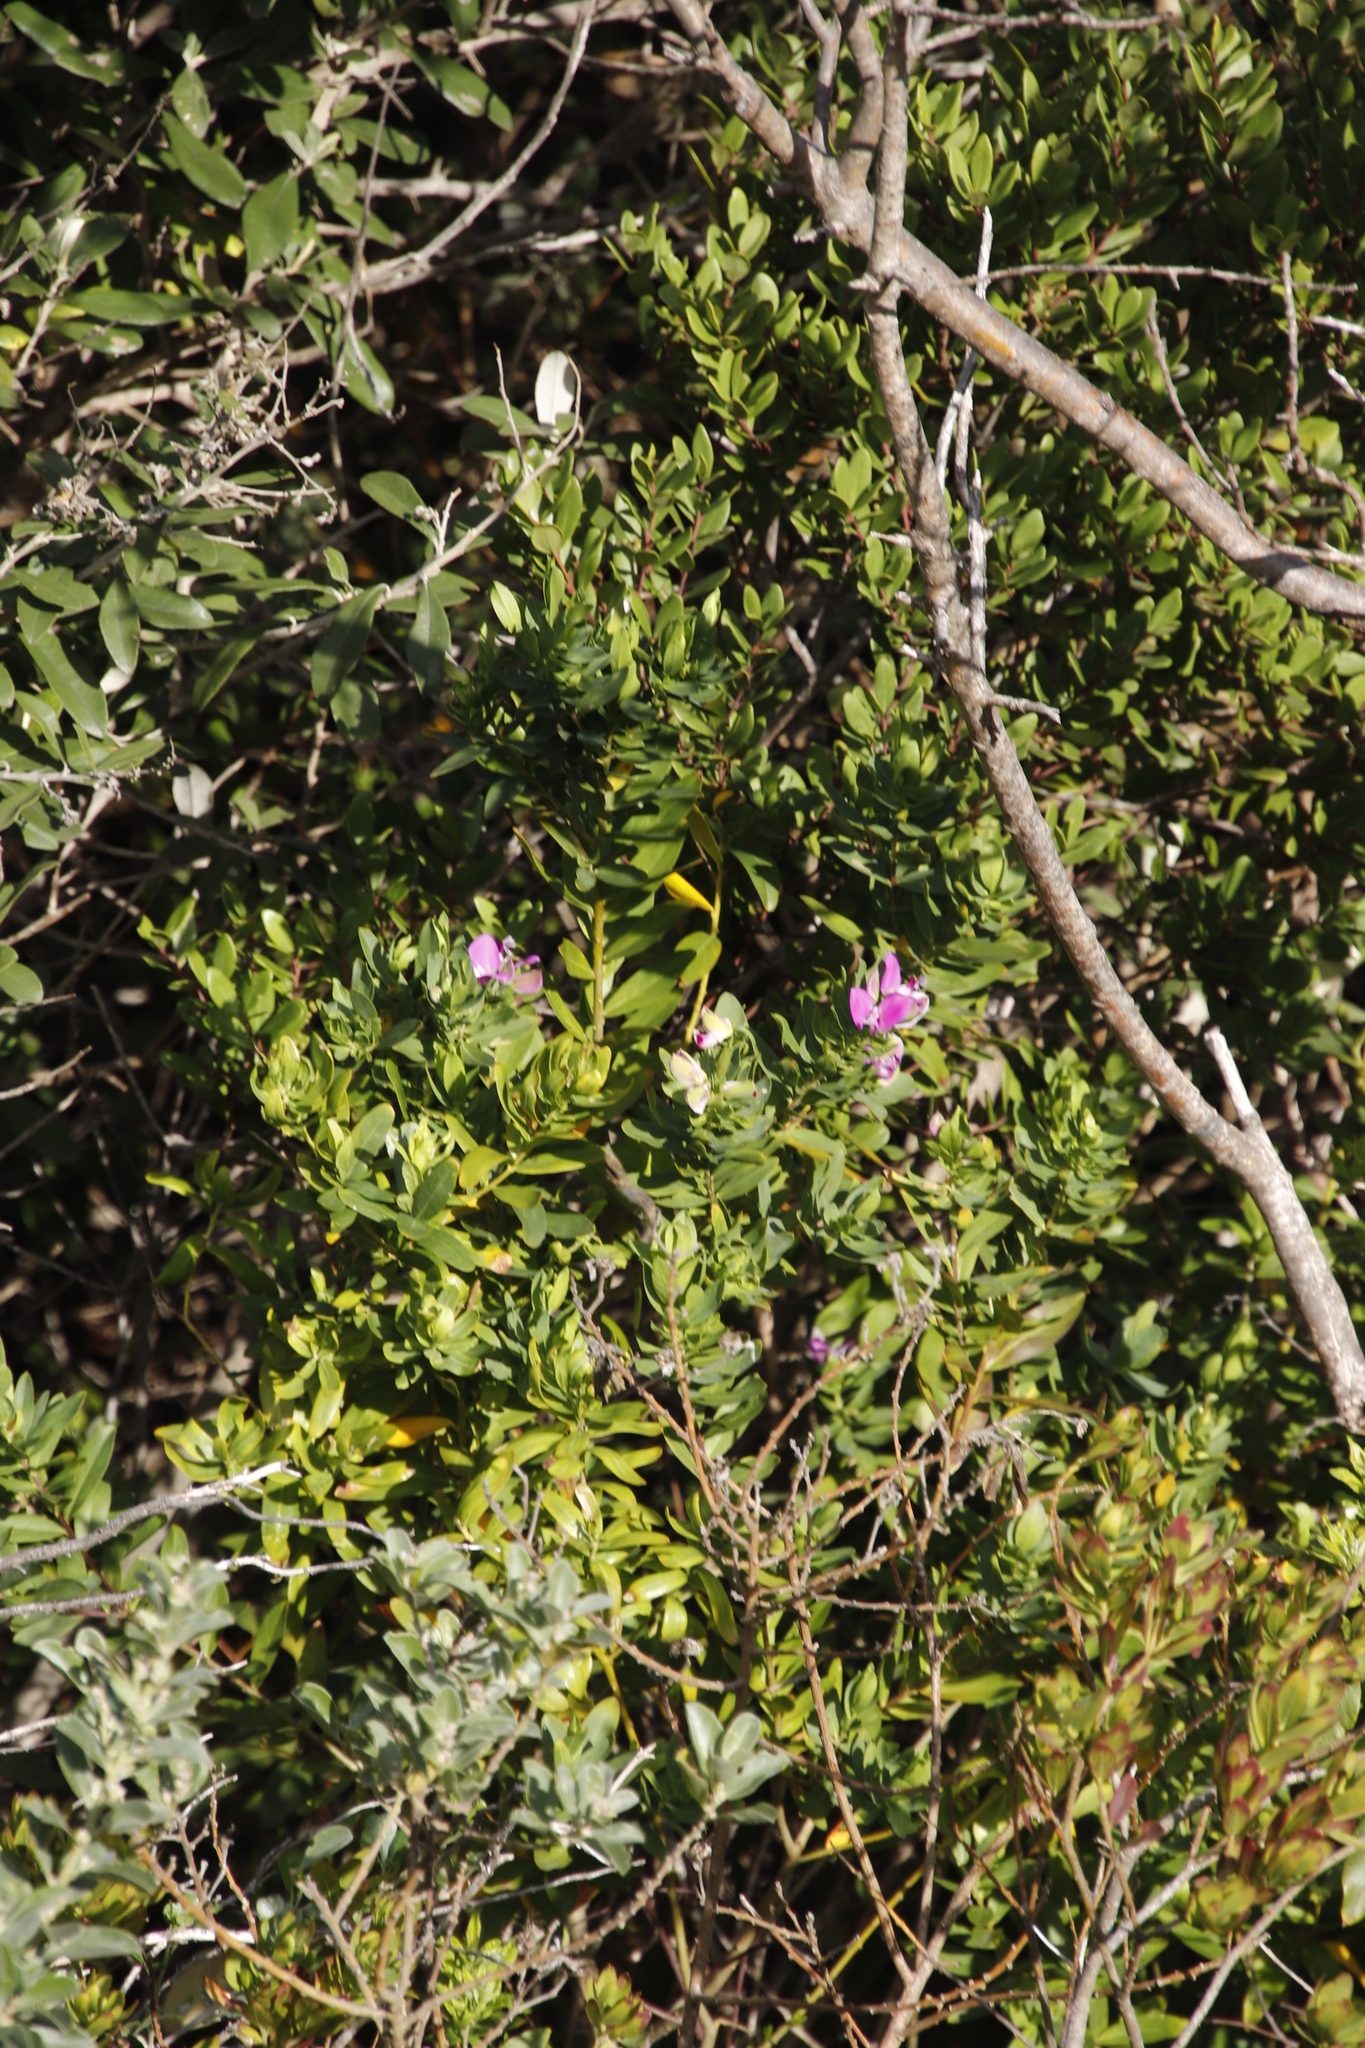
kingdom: Plantae
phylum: Tracheophyta
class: Magnoliopsida
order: Fabales
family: Polygalaceae
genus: Polygala
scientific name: Polygala myrtifolia
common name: Myrtle-leaf milkwort
